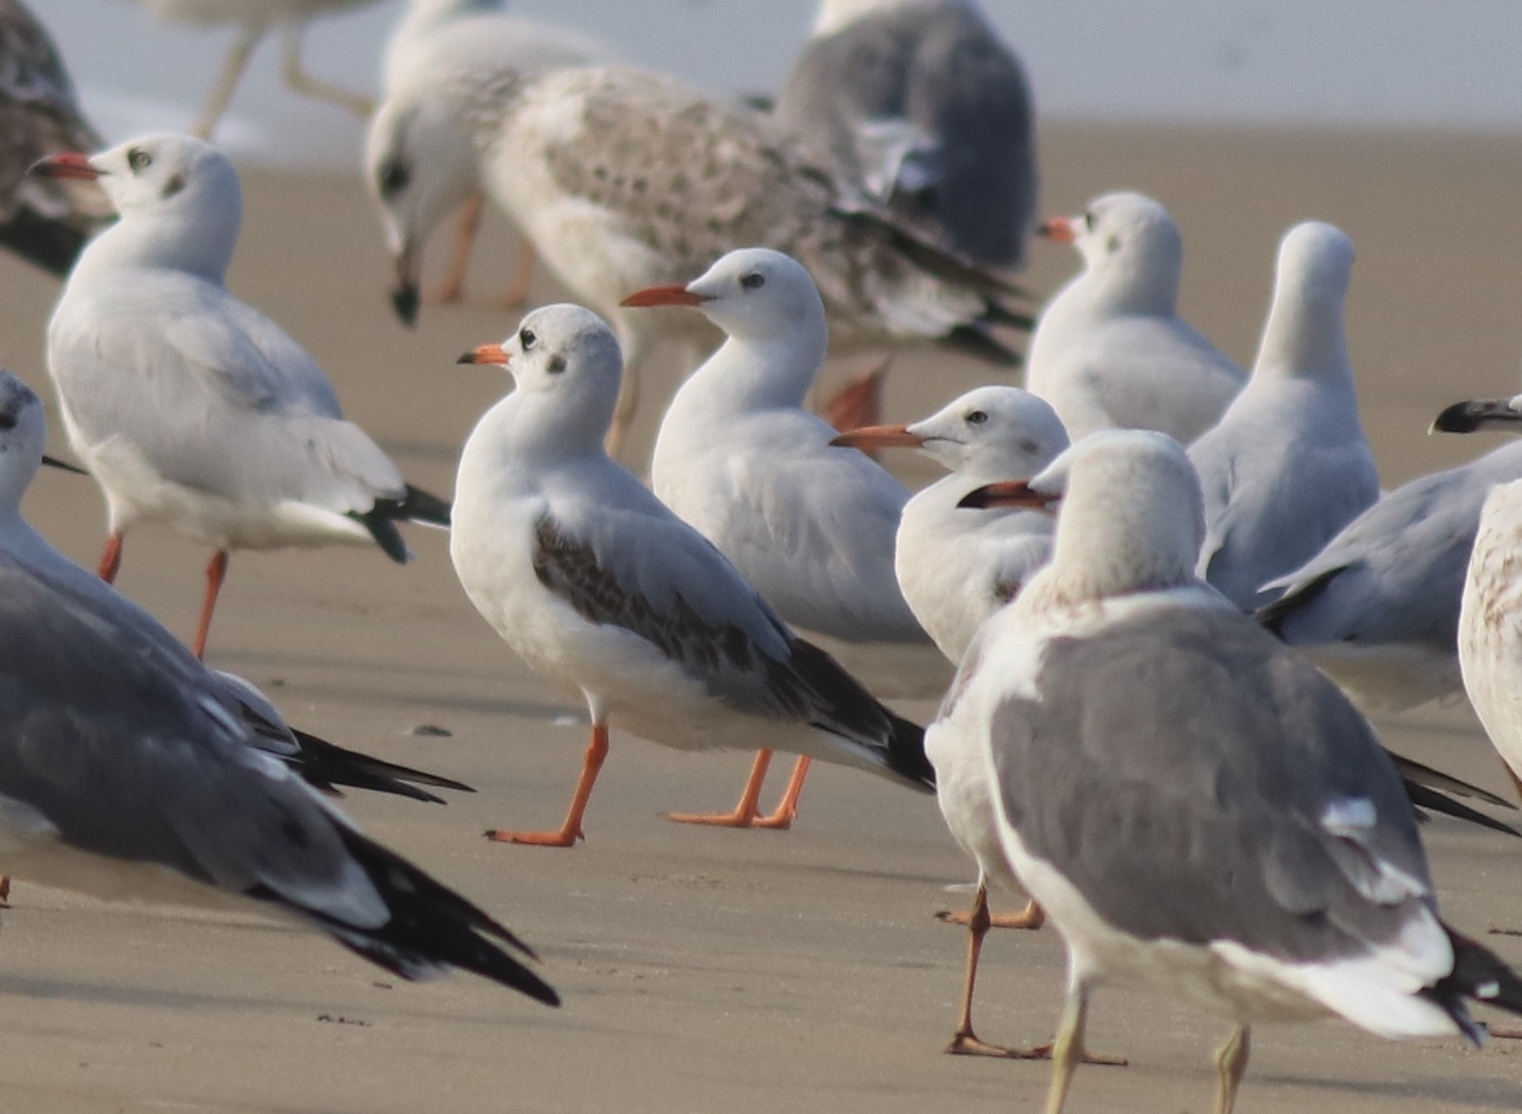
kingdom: Animalia
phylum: Chordata
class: Aves
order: Charadriiformes
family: Laridae
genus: Chroicocephalus
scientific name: Chroicocephalus genei
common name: Slender-billed gull
